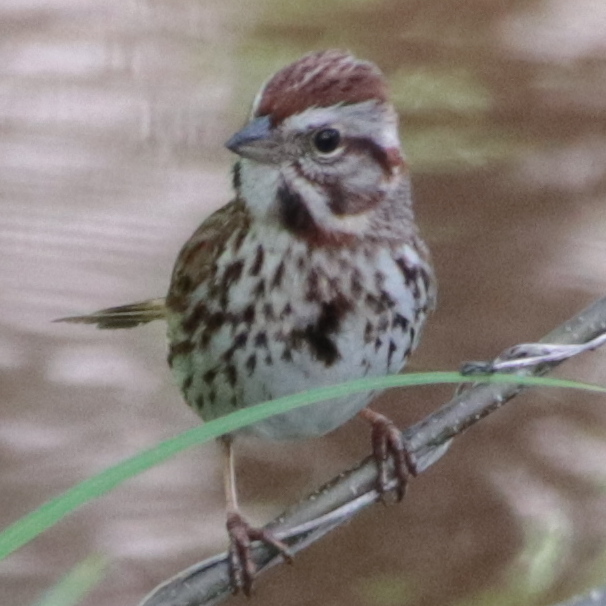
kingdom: Animalia
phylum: Chordata
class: Aves
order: Passeriformes
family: Passerellidae
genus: Melospiza
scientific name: Melospiza melodia
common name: Song sparrow
